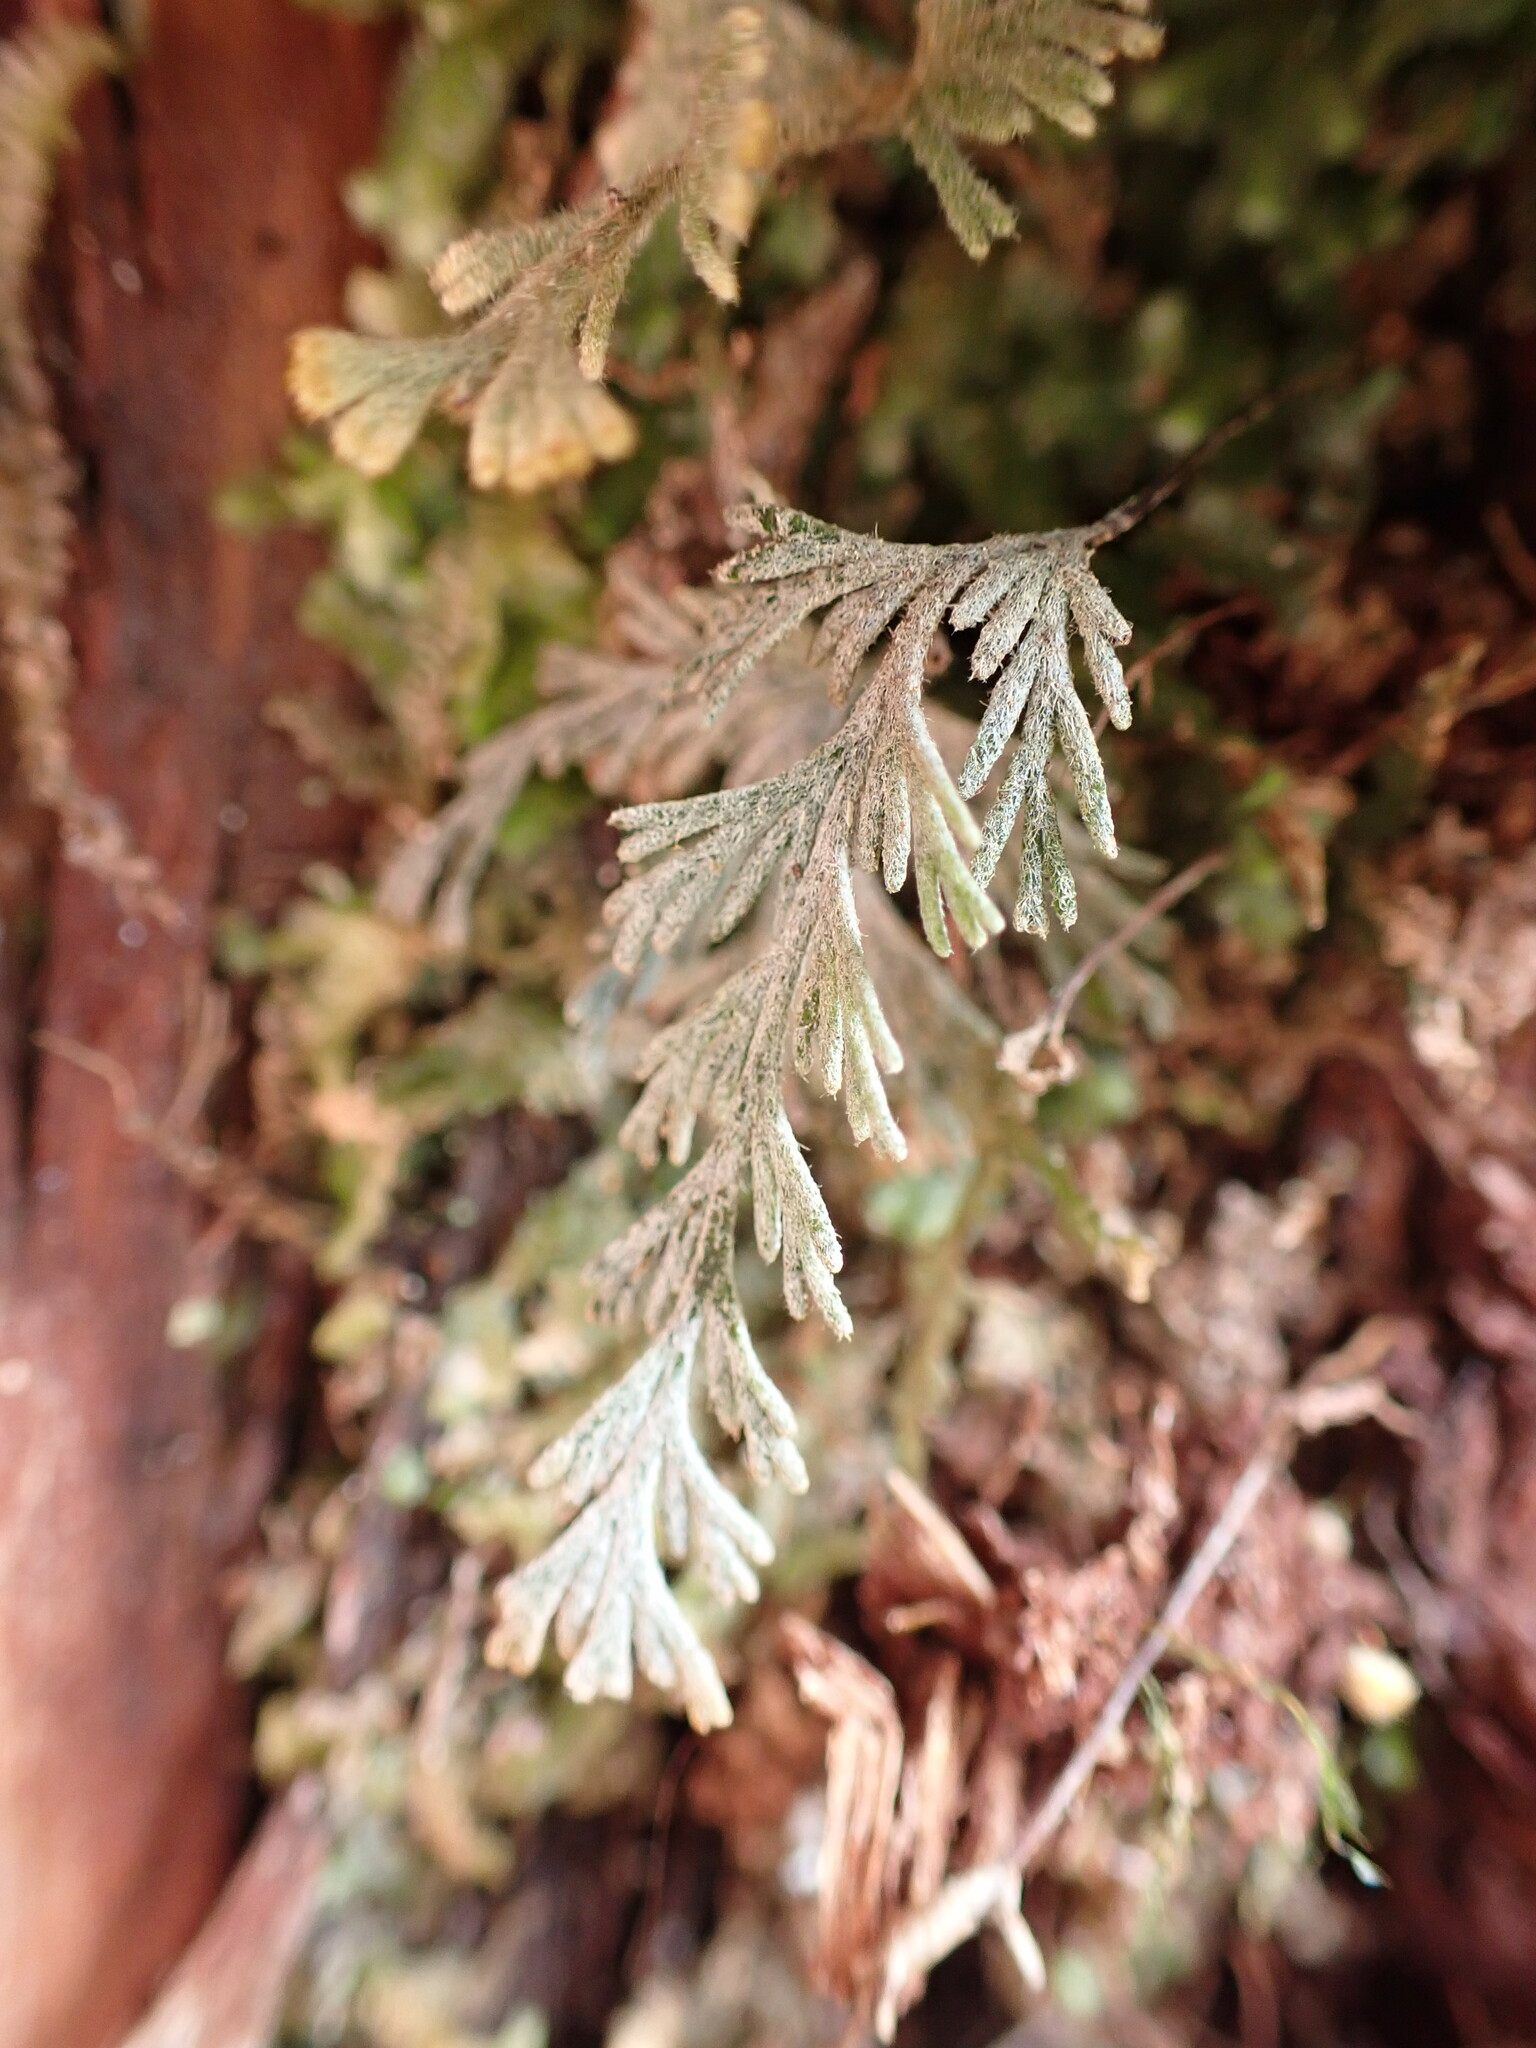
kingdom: Plantae
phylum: Tracheophyta
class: Polypodiopsida
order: Hymenophyllales
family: Hymenophyllaceae
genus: Hymenophyllum
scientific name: Hymenophyllum malingii
